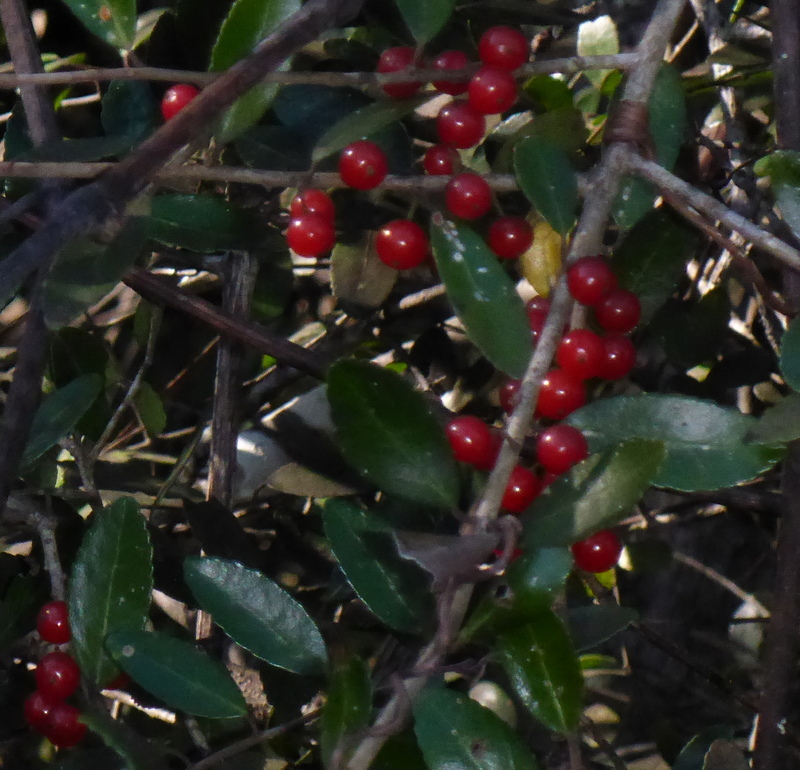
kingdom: Plantae
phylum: Tracheophyta
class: Magnoliopsida
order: Aquifoliales
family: Aquifoliaceae
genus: Ilex
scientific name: Ilex vomitoria
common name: Yaupon holly
